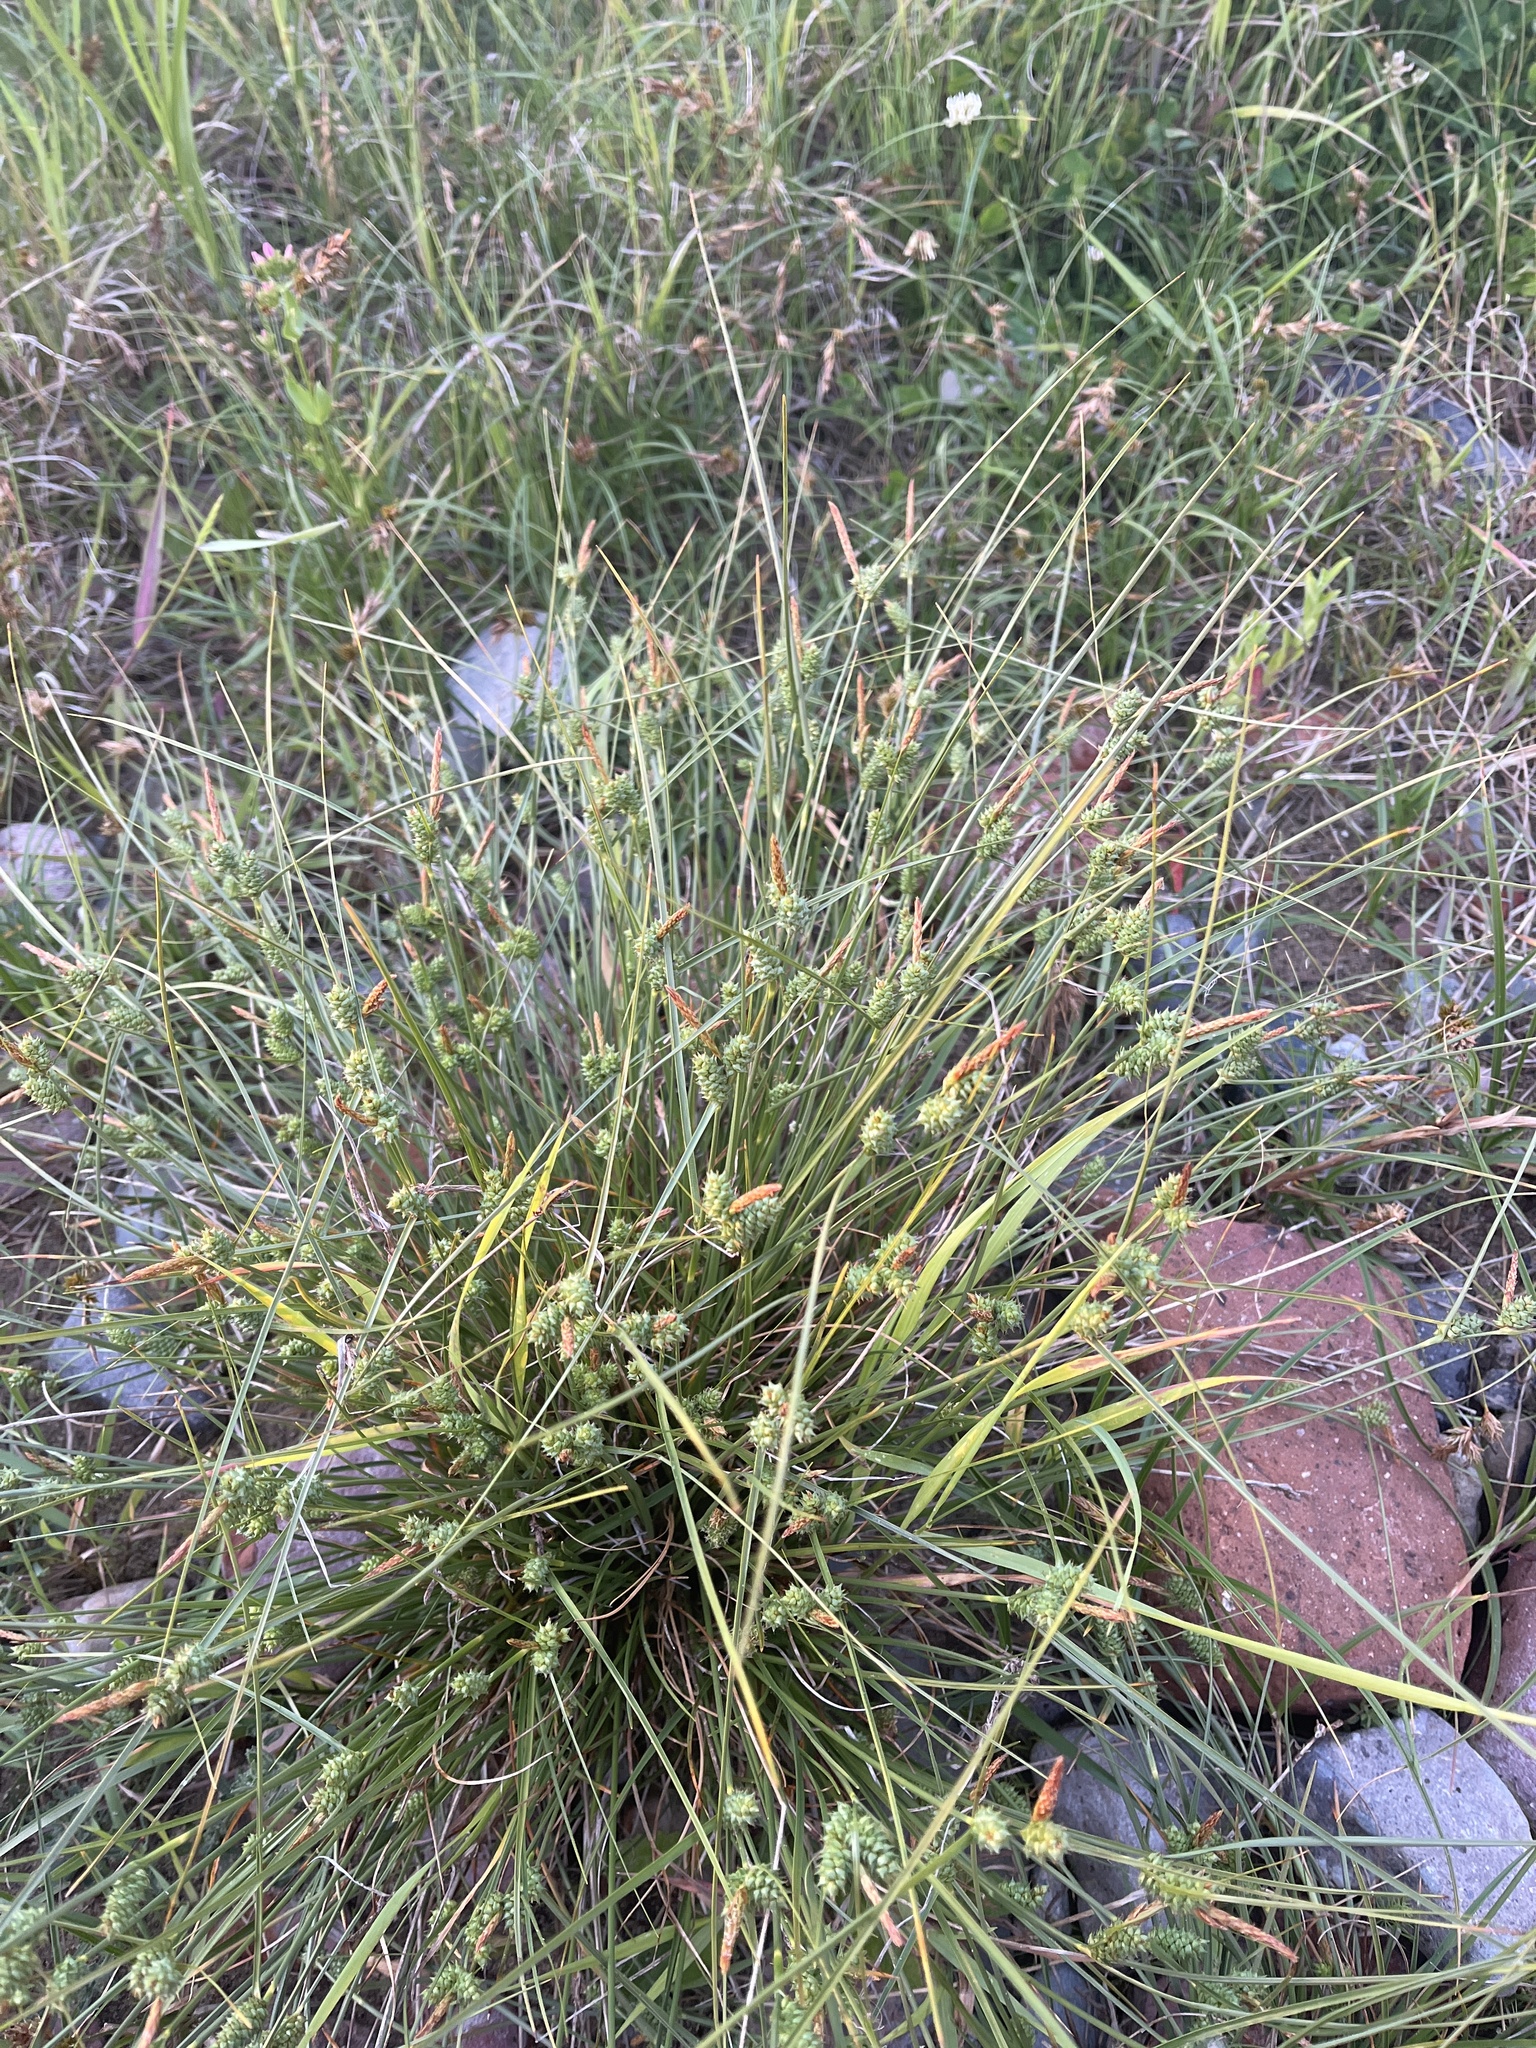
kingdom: Plantae
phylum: Tracheophyta
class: Liliopsida
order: Poales
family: Cyperaceae
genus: Carex
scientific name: Carex extensa
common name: Long-bracted sedge
